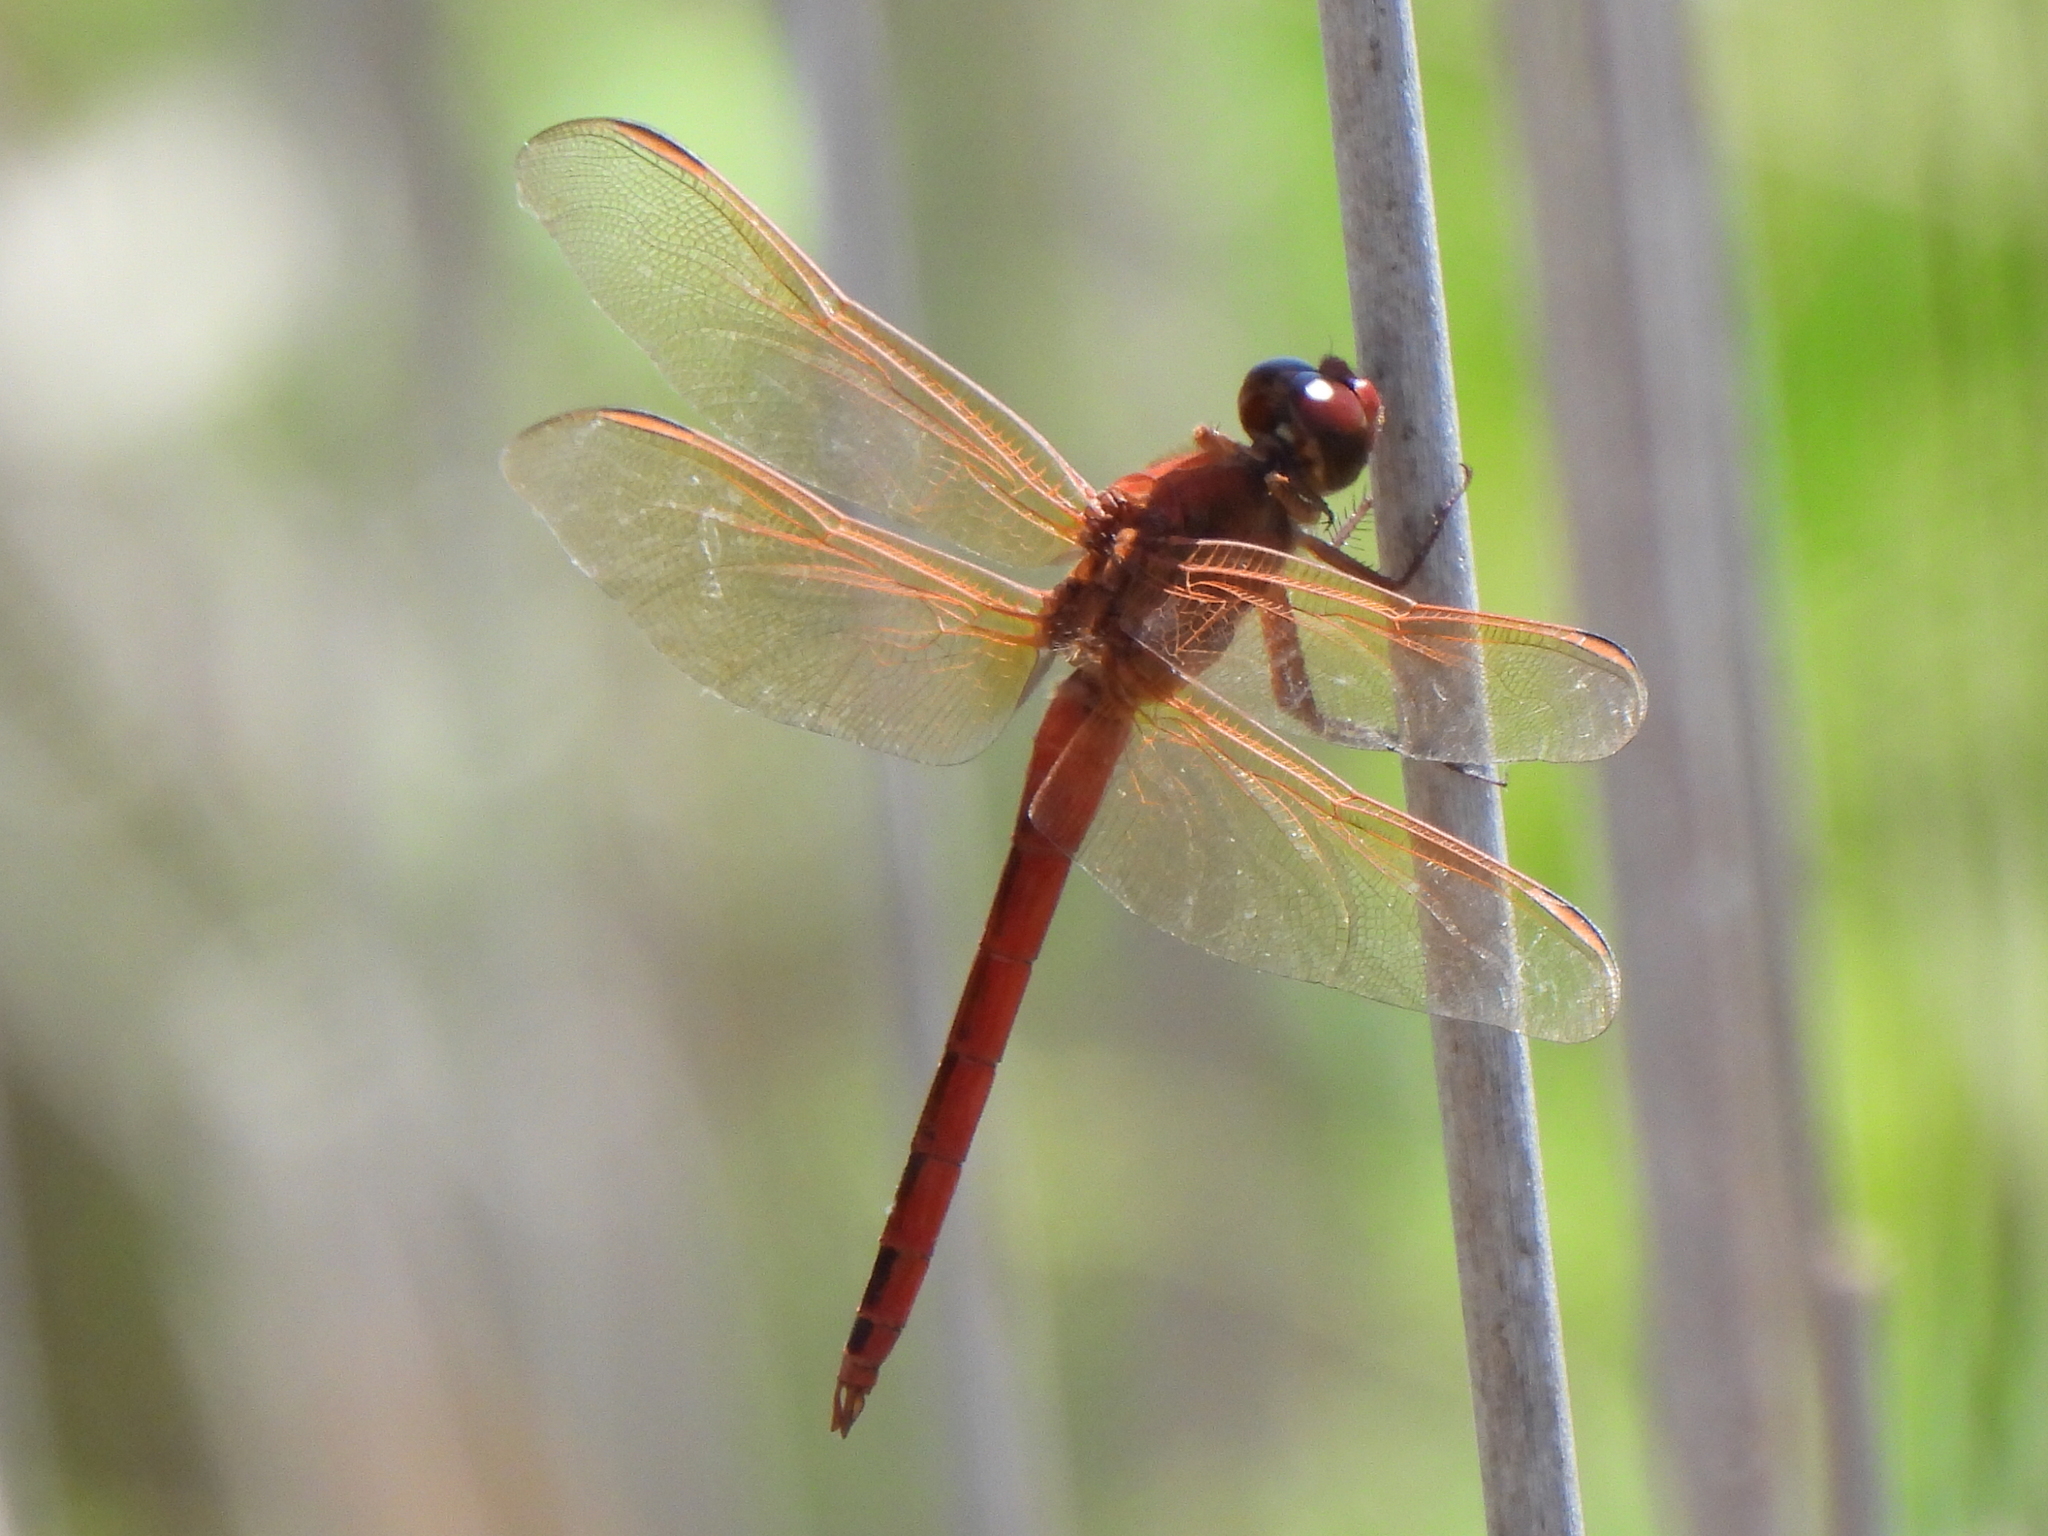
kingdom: Animalia
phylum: Arthropoda
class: Insecta
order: Odonata
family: Libellulidae
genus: Libellula
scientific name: Libellula needhami
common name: Needham's skimmer
